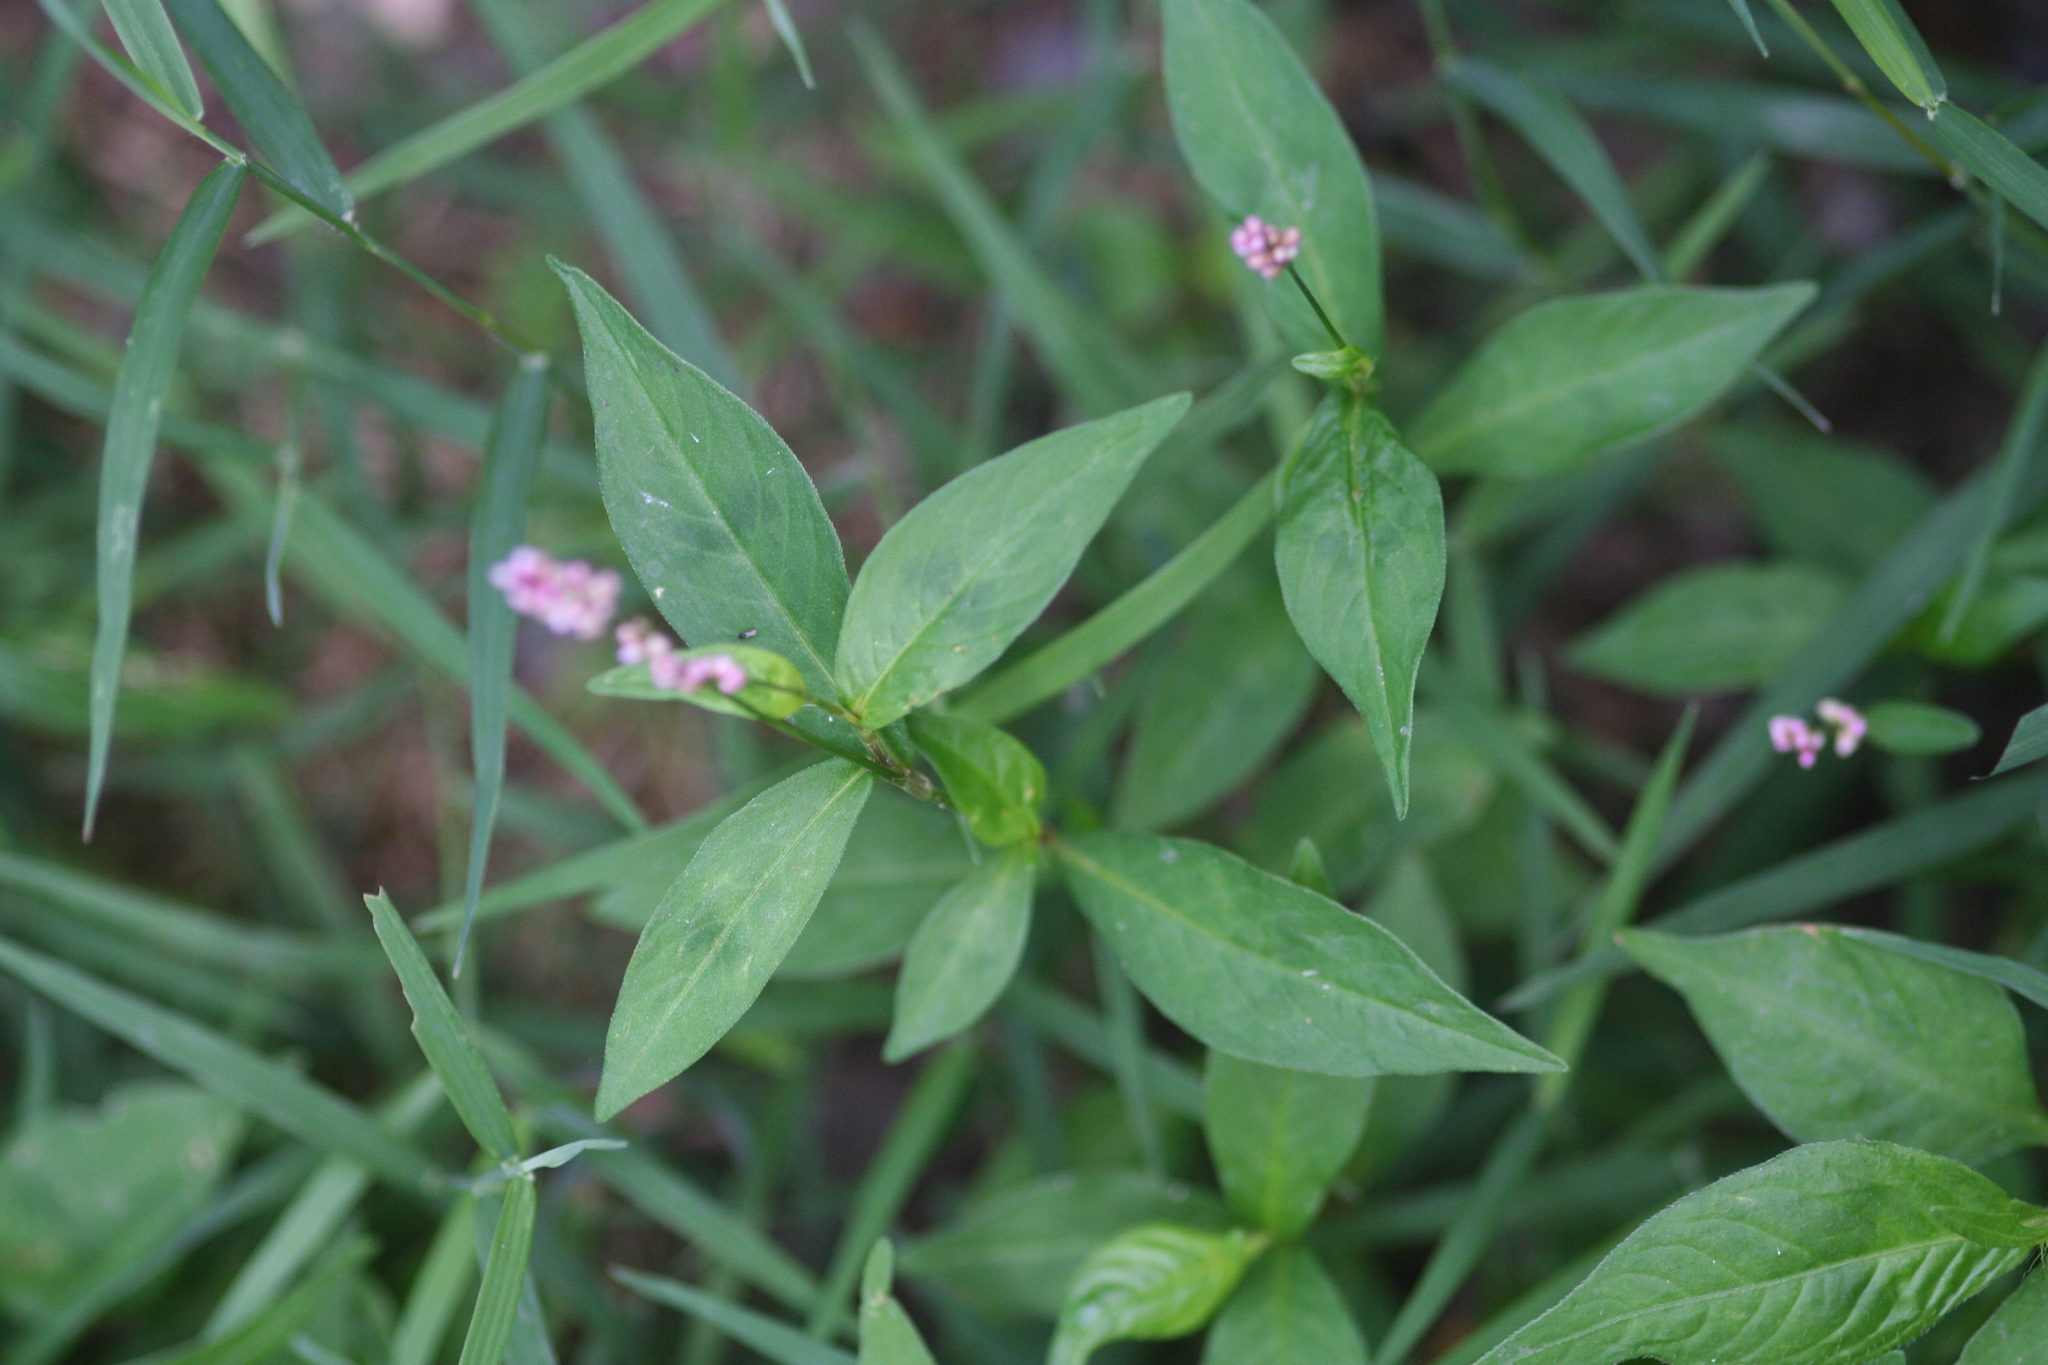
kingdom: Plantae
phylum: Tracheophyta
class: Magnoliopsida
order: Caryophyllales
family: Polygonaceae
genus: Persicaria
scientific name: Persicaria longiseta
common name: Bristly lady's-thumb
